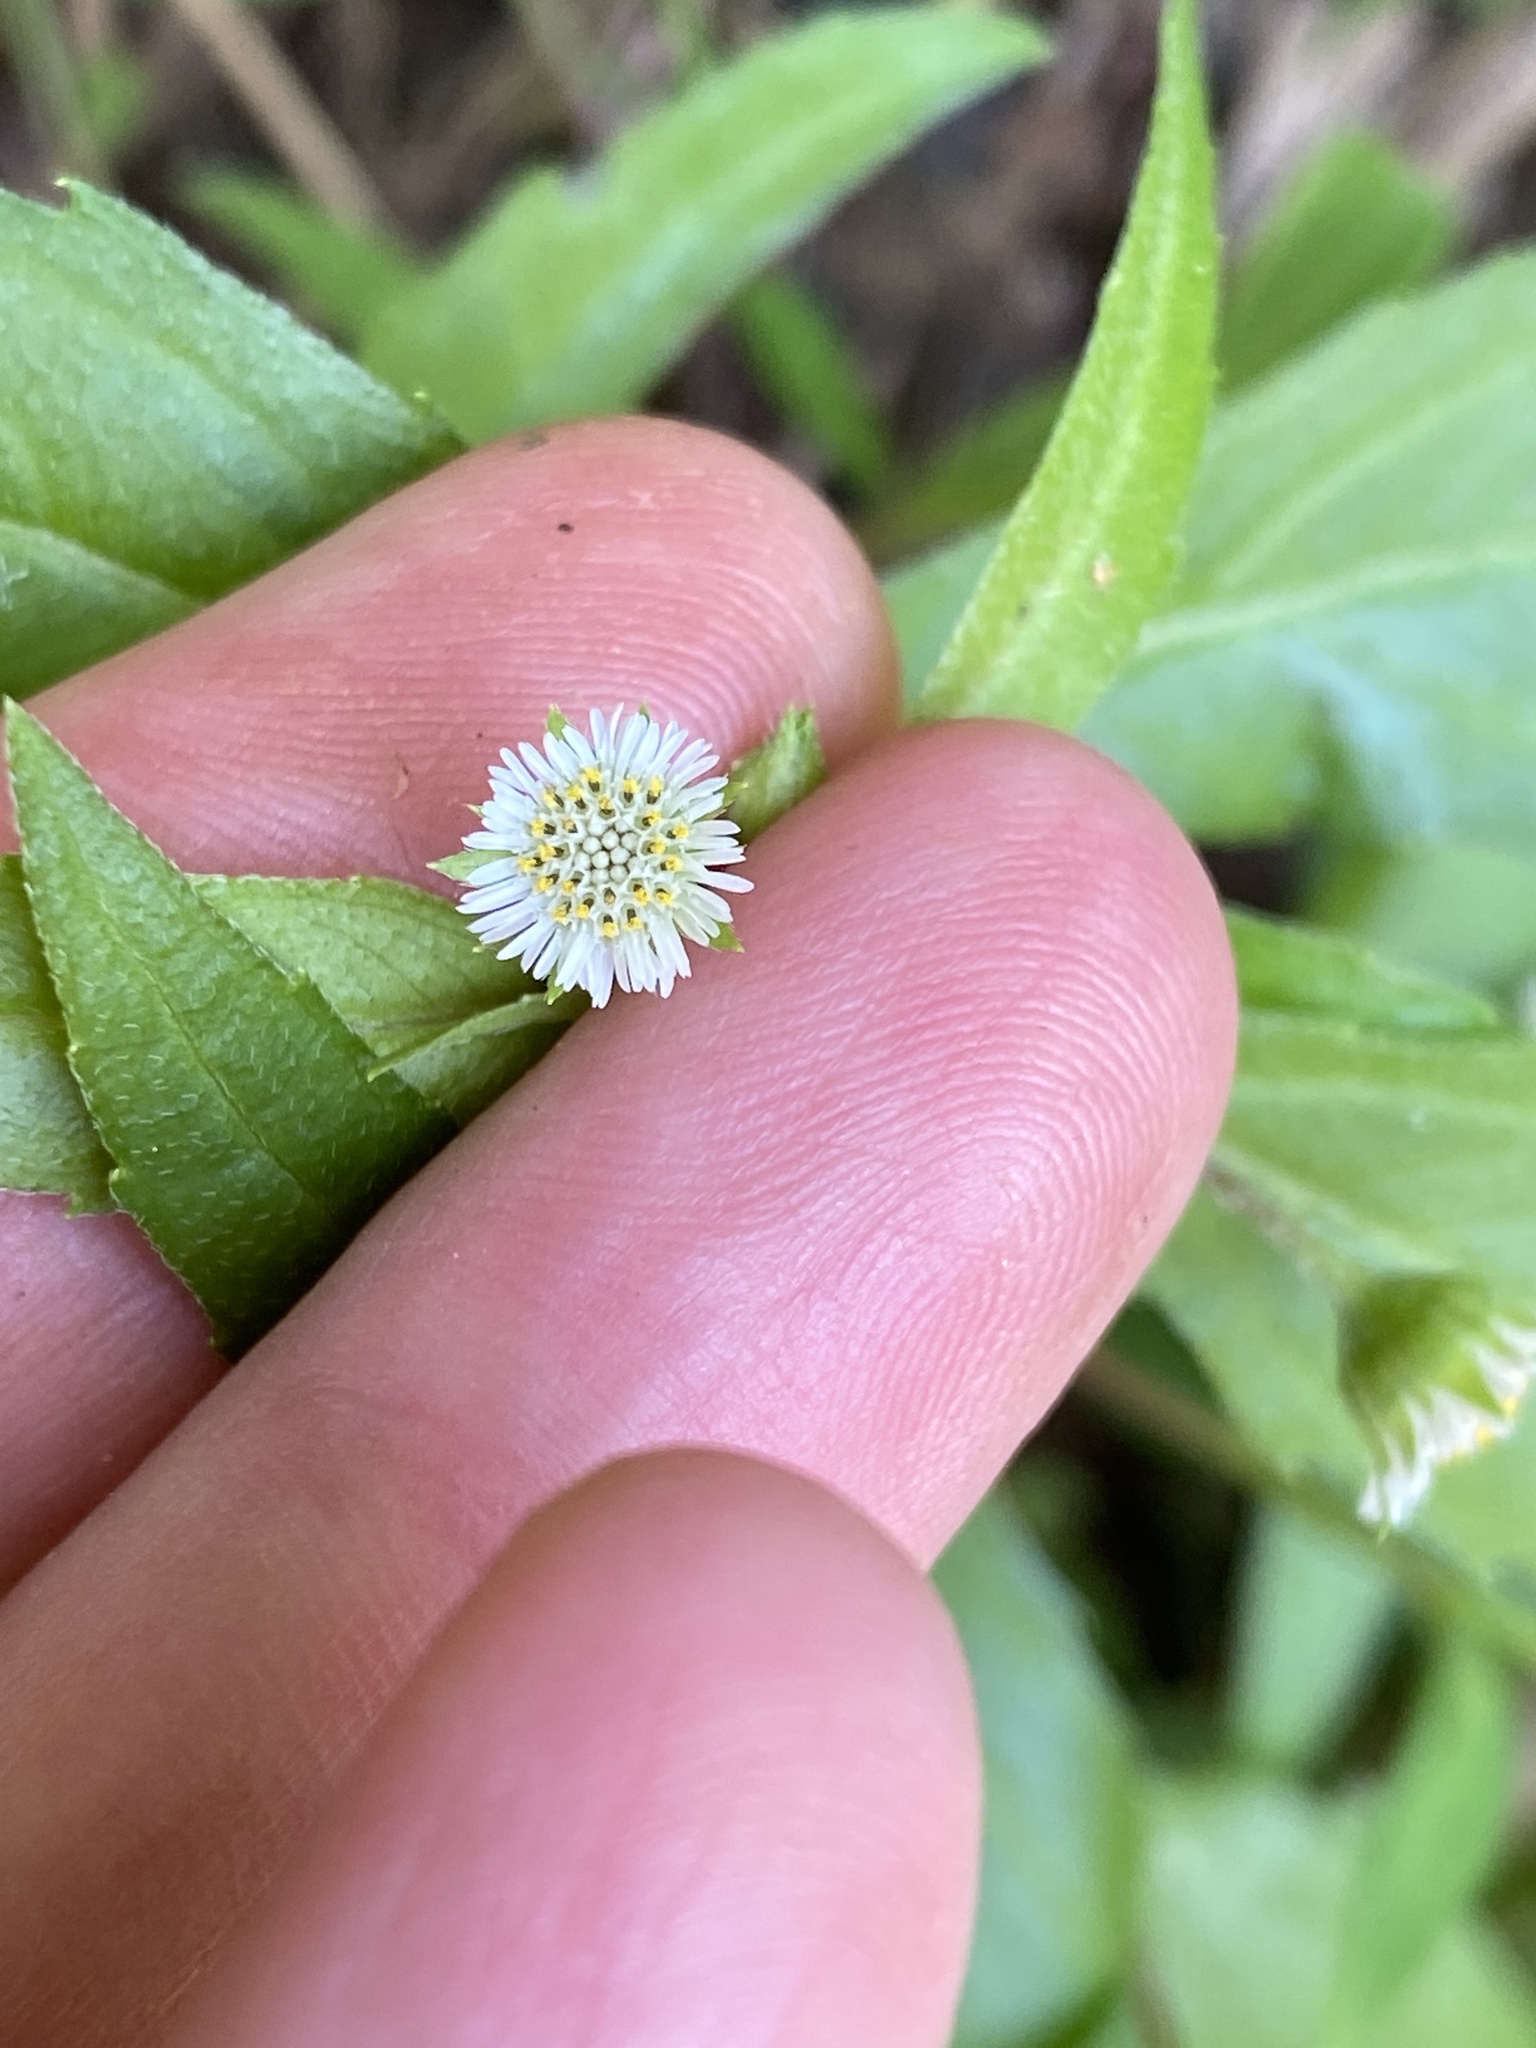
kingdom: Plantae
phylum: Tracheophyta
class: Magnoliopsida
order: Asterales
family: Asteraceae
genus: Eclipta
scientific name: Eclipta prostrata
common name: False daisy
